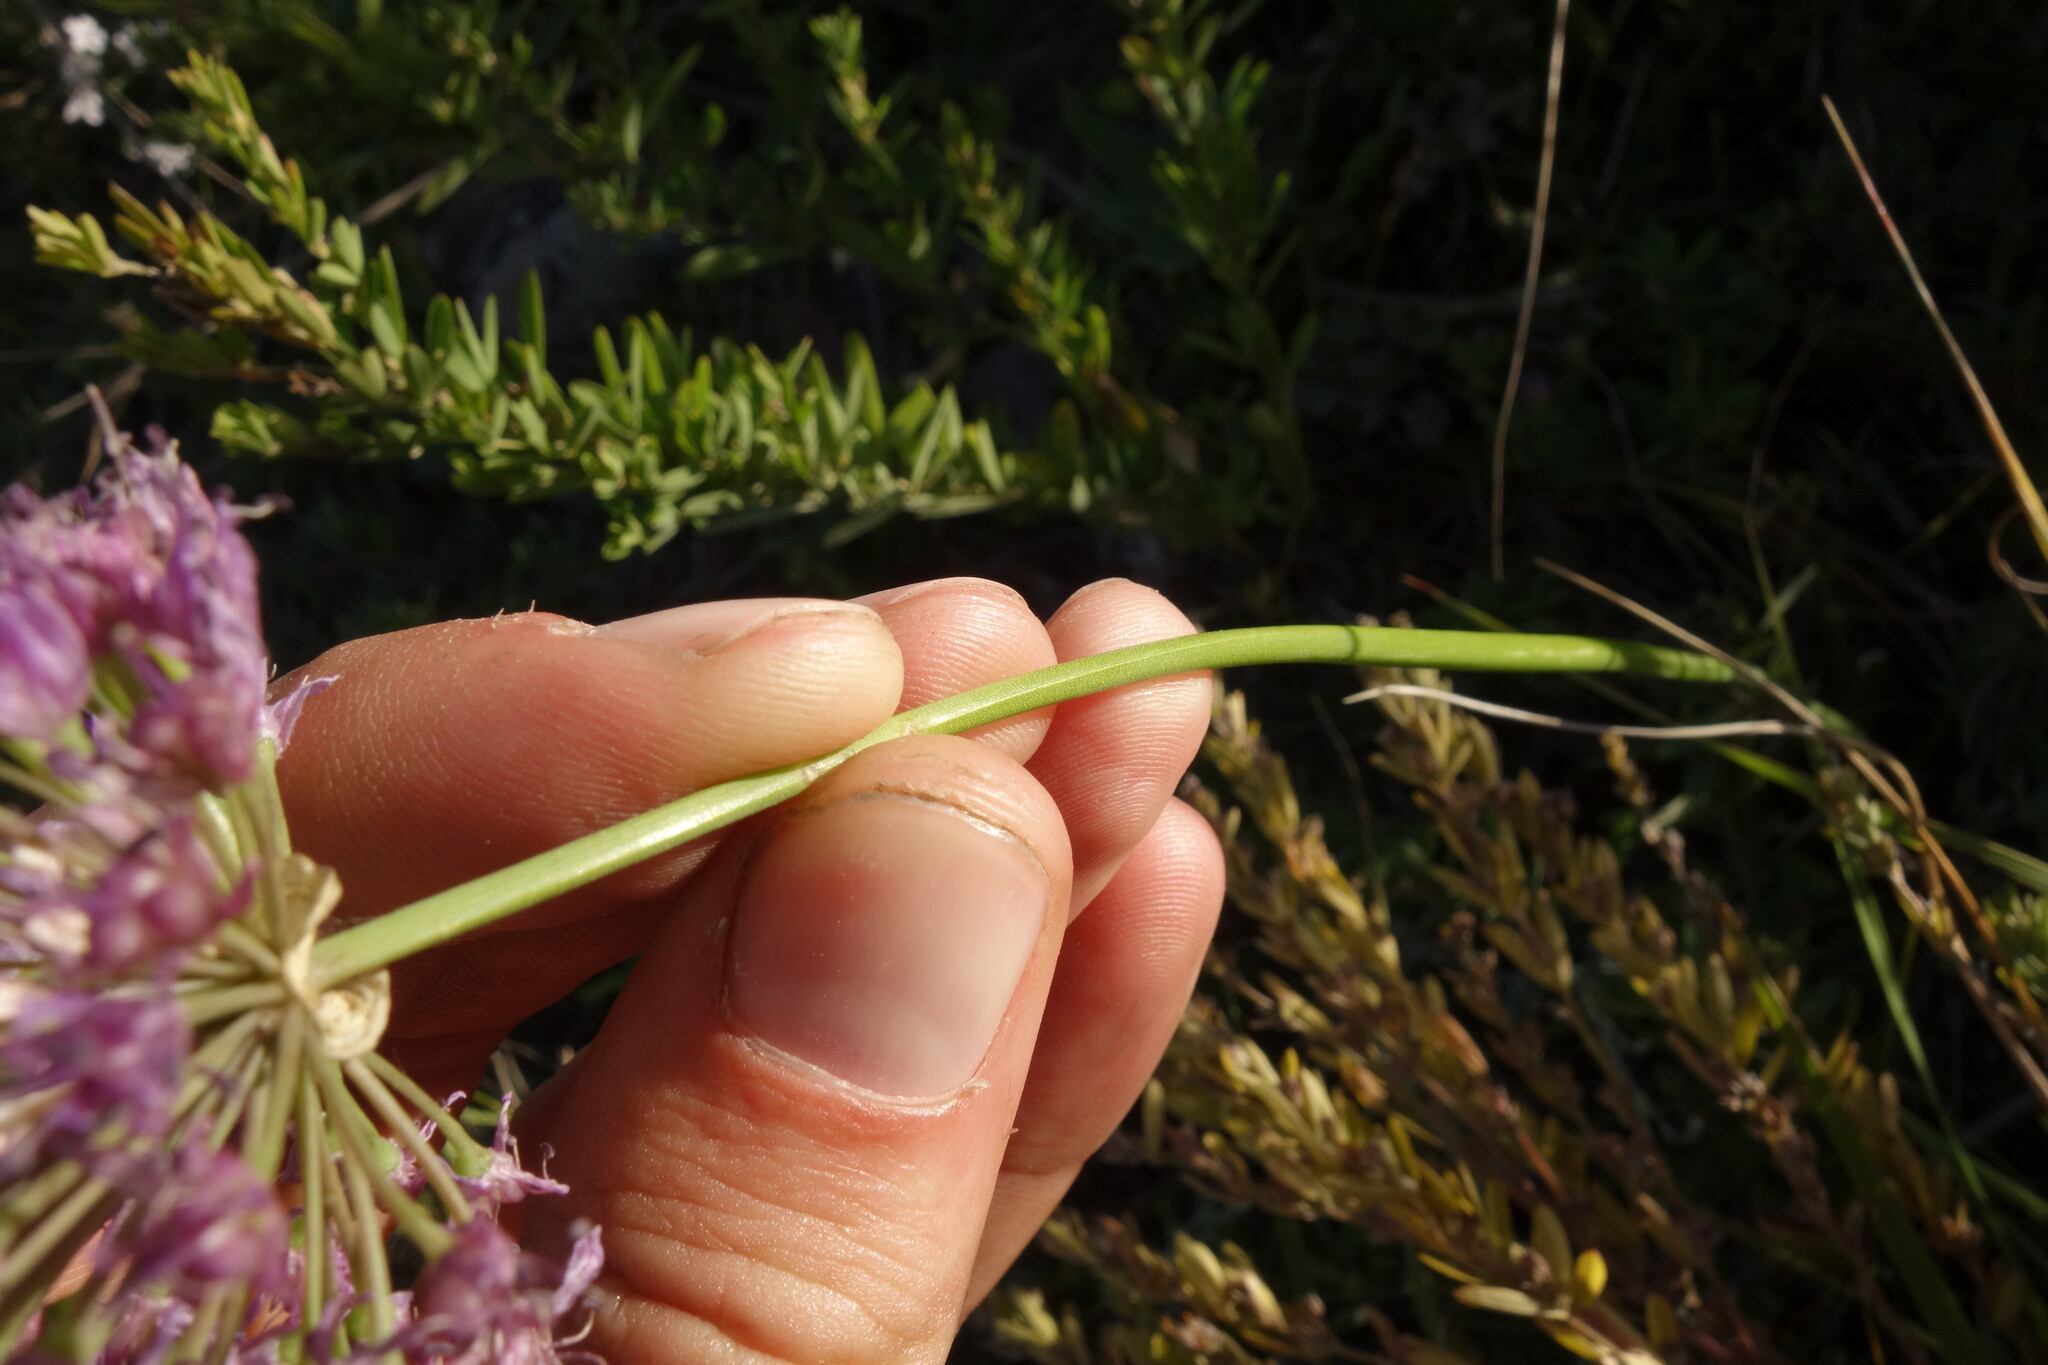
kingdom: Plantae
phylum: Tracheophyta
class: Liliopsida
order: Asparagales
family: Amaryllidaceae
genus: Allium
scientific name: Allium senescens
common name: German garlic
